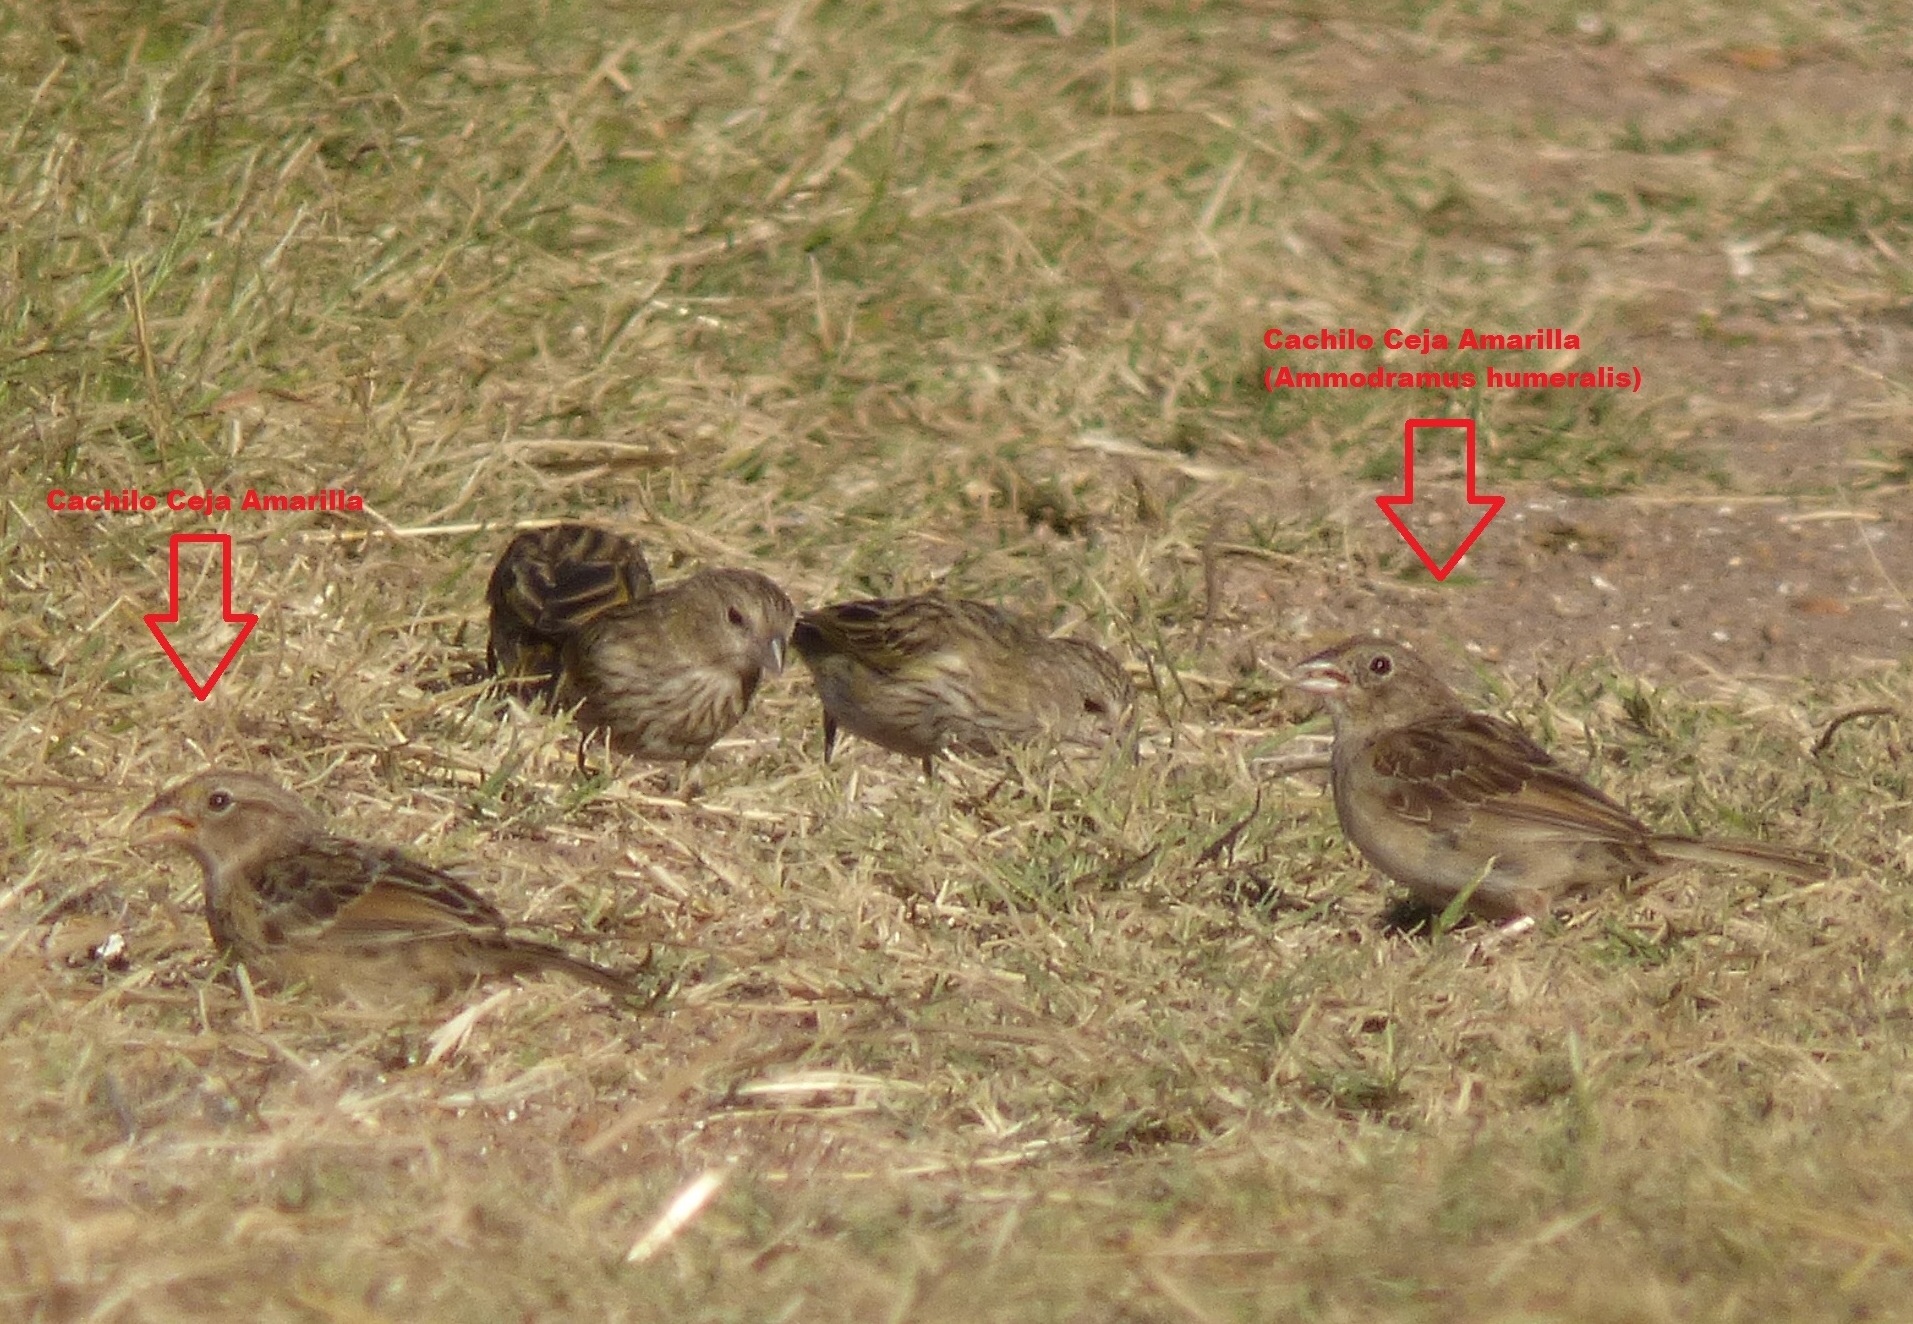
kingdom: Animalia
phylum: Chordata
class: Aves
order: Passeriformes
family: Thraupidae
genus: Sicalis
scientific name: Sicalis flaveola
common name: Saffron finch
